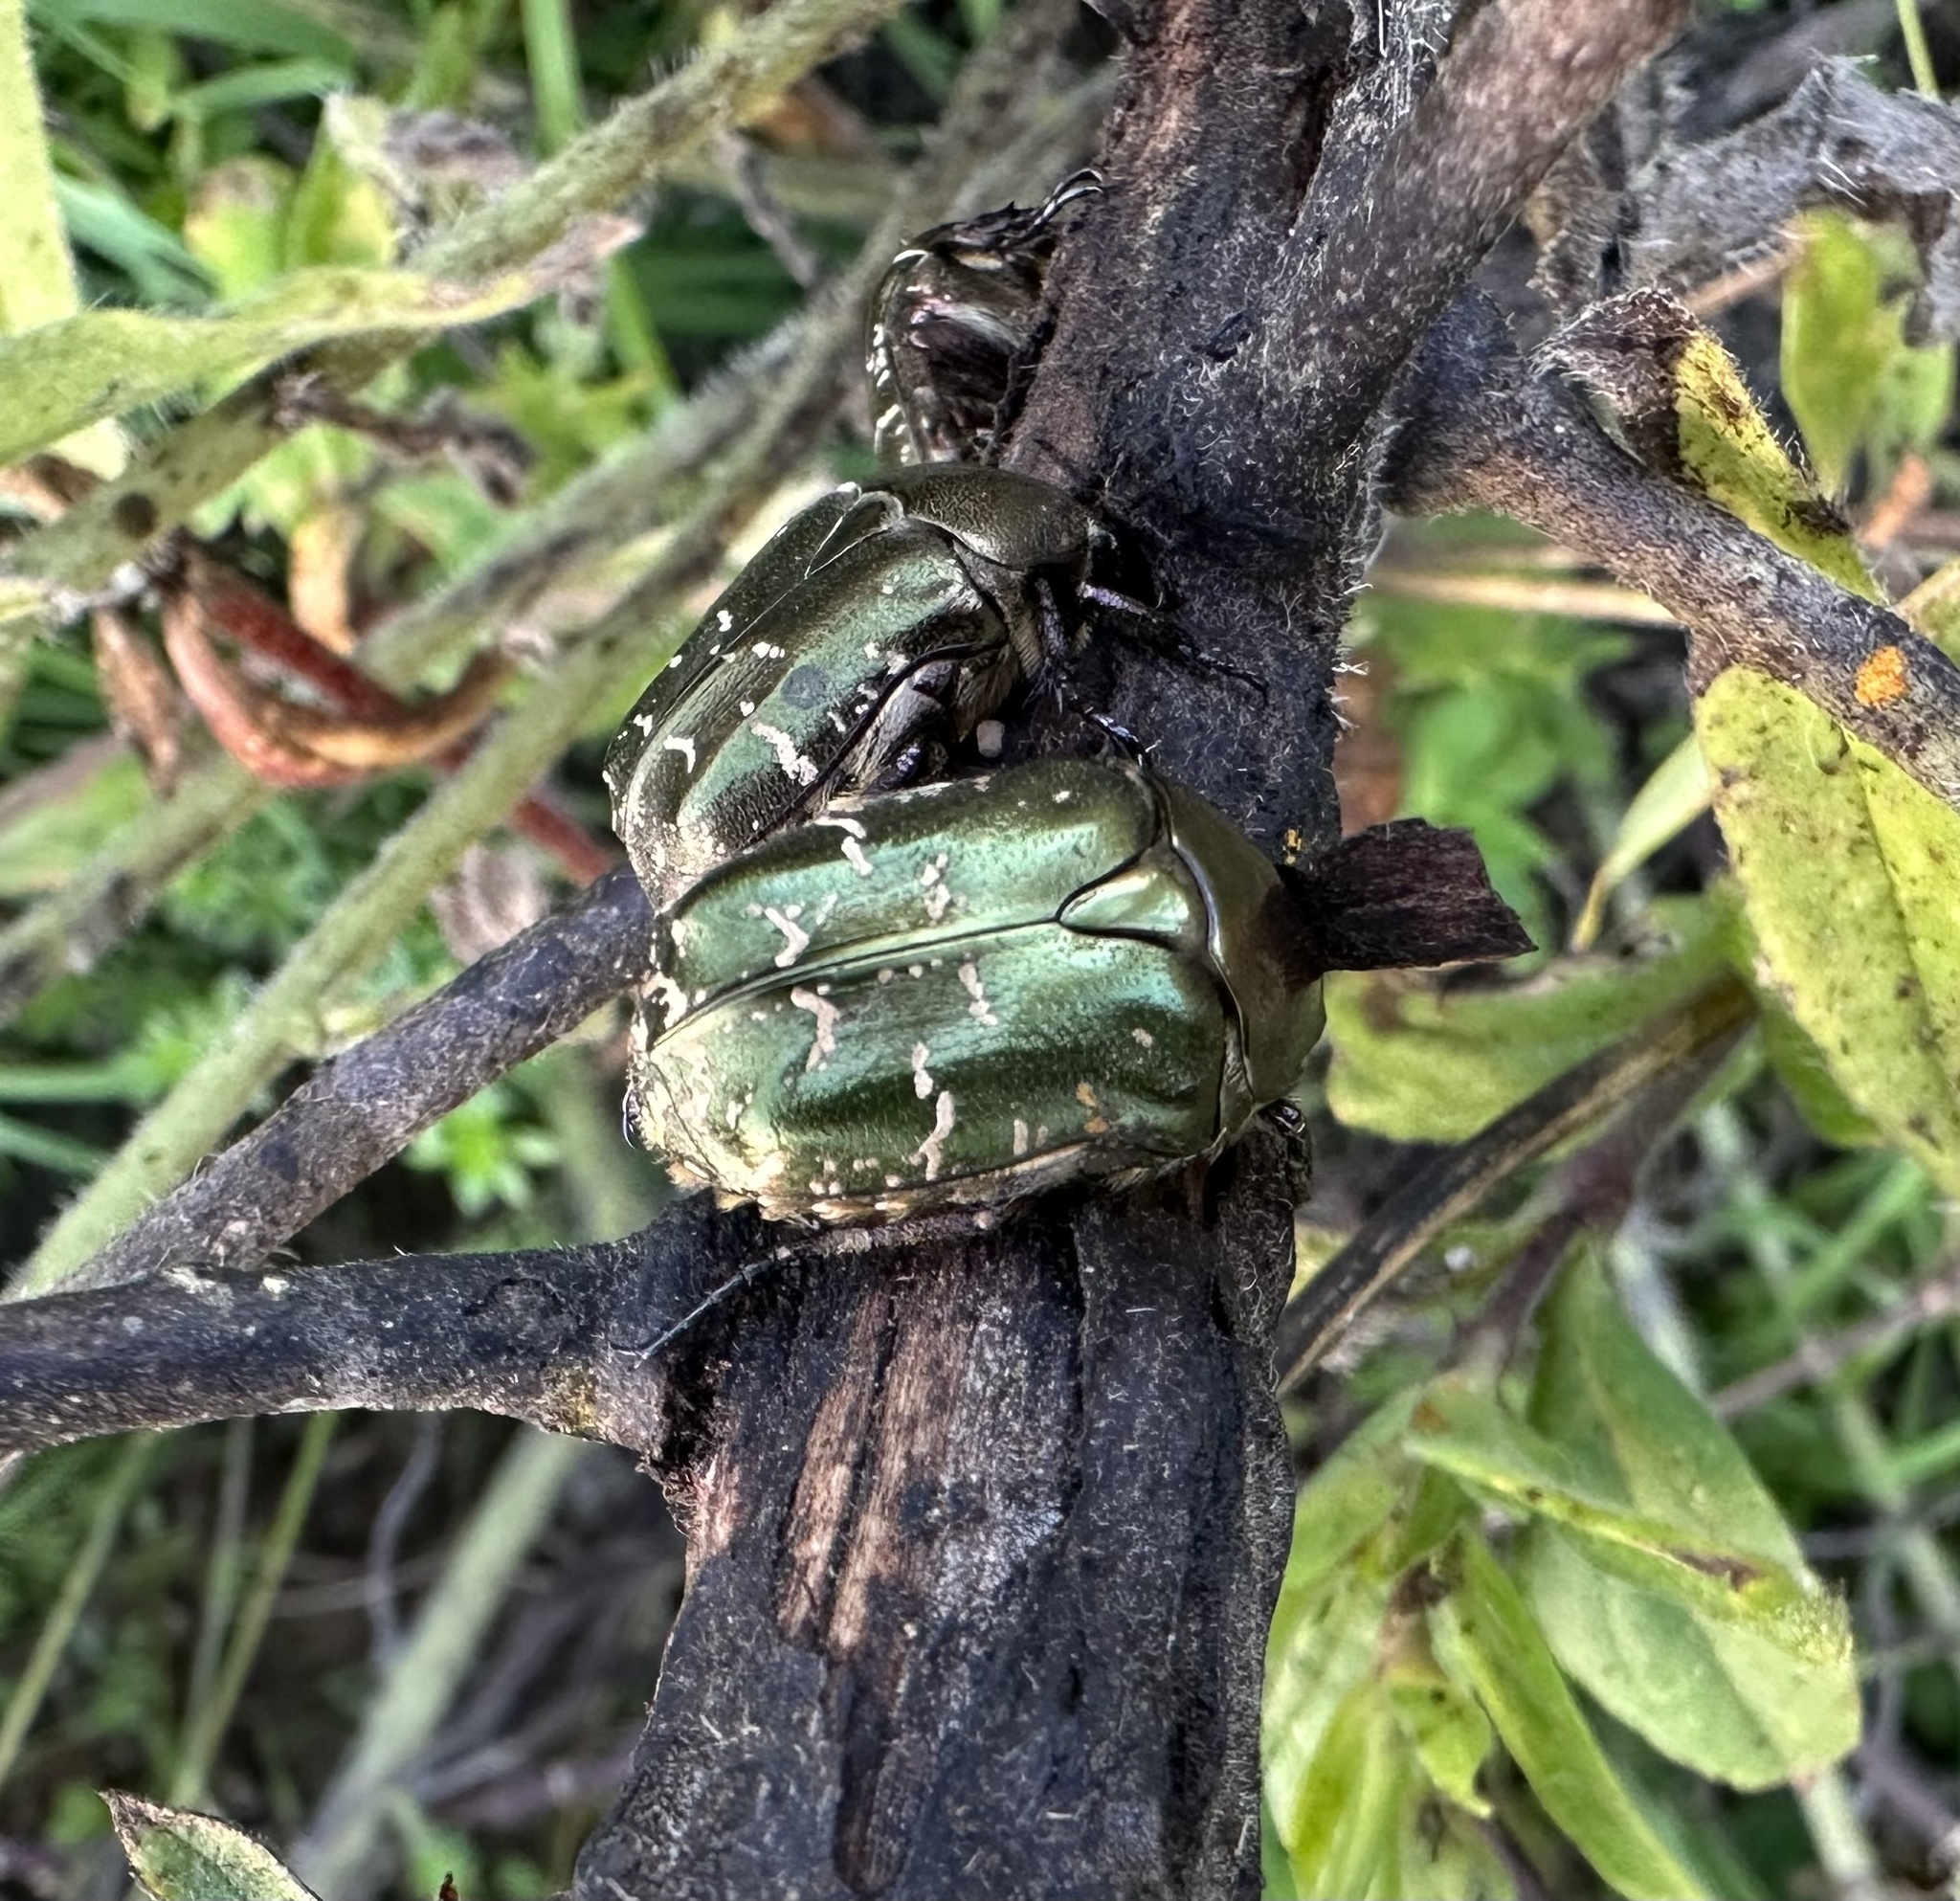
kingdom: Animalia
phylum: Arthropoda
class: Insecta
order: Coleoptera
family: Scarabaeidae
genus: Protaetia
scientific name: Protaetia cuprea
